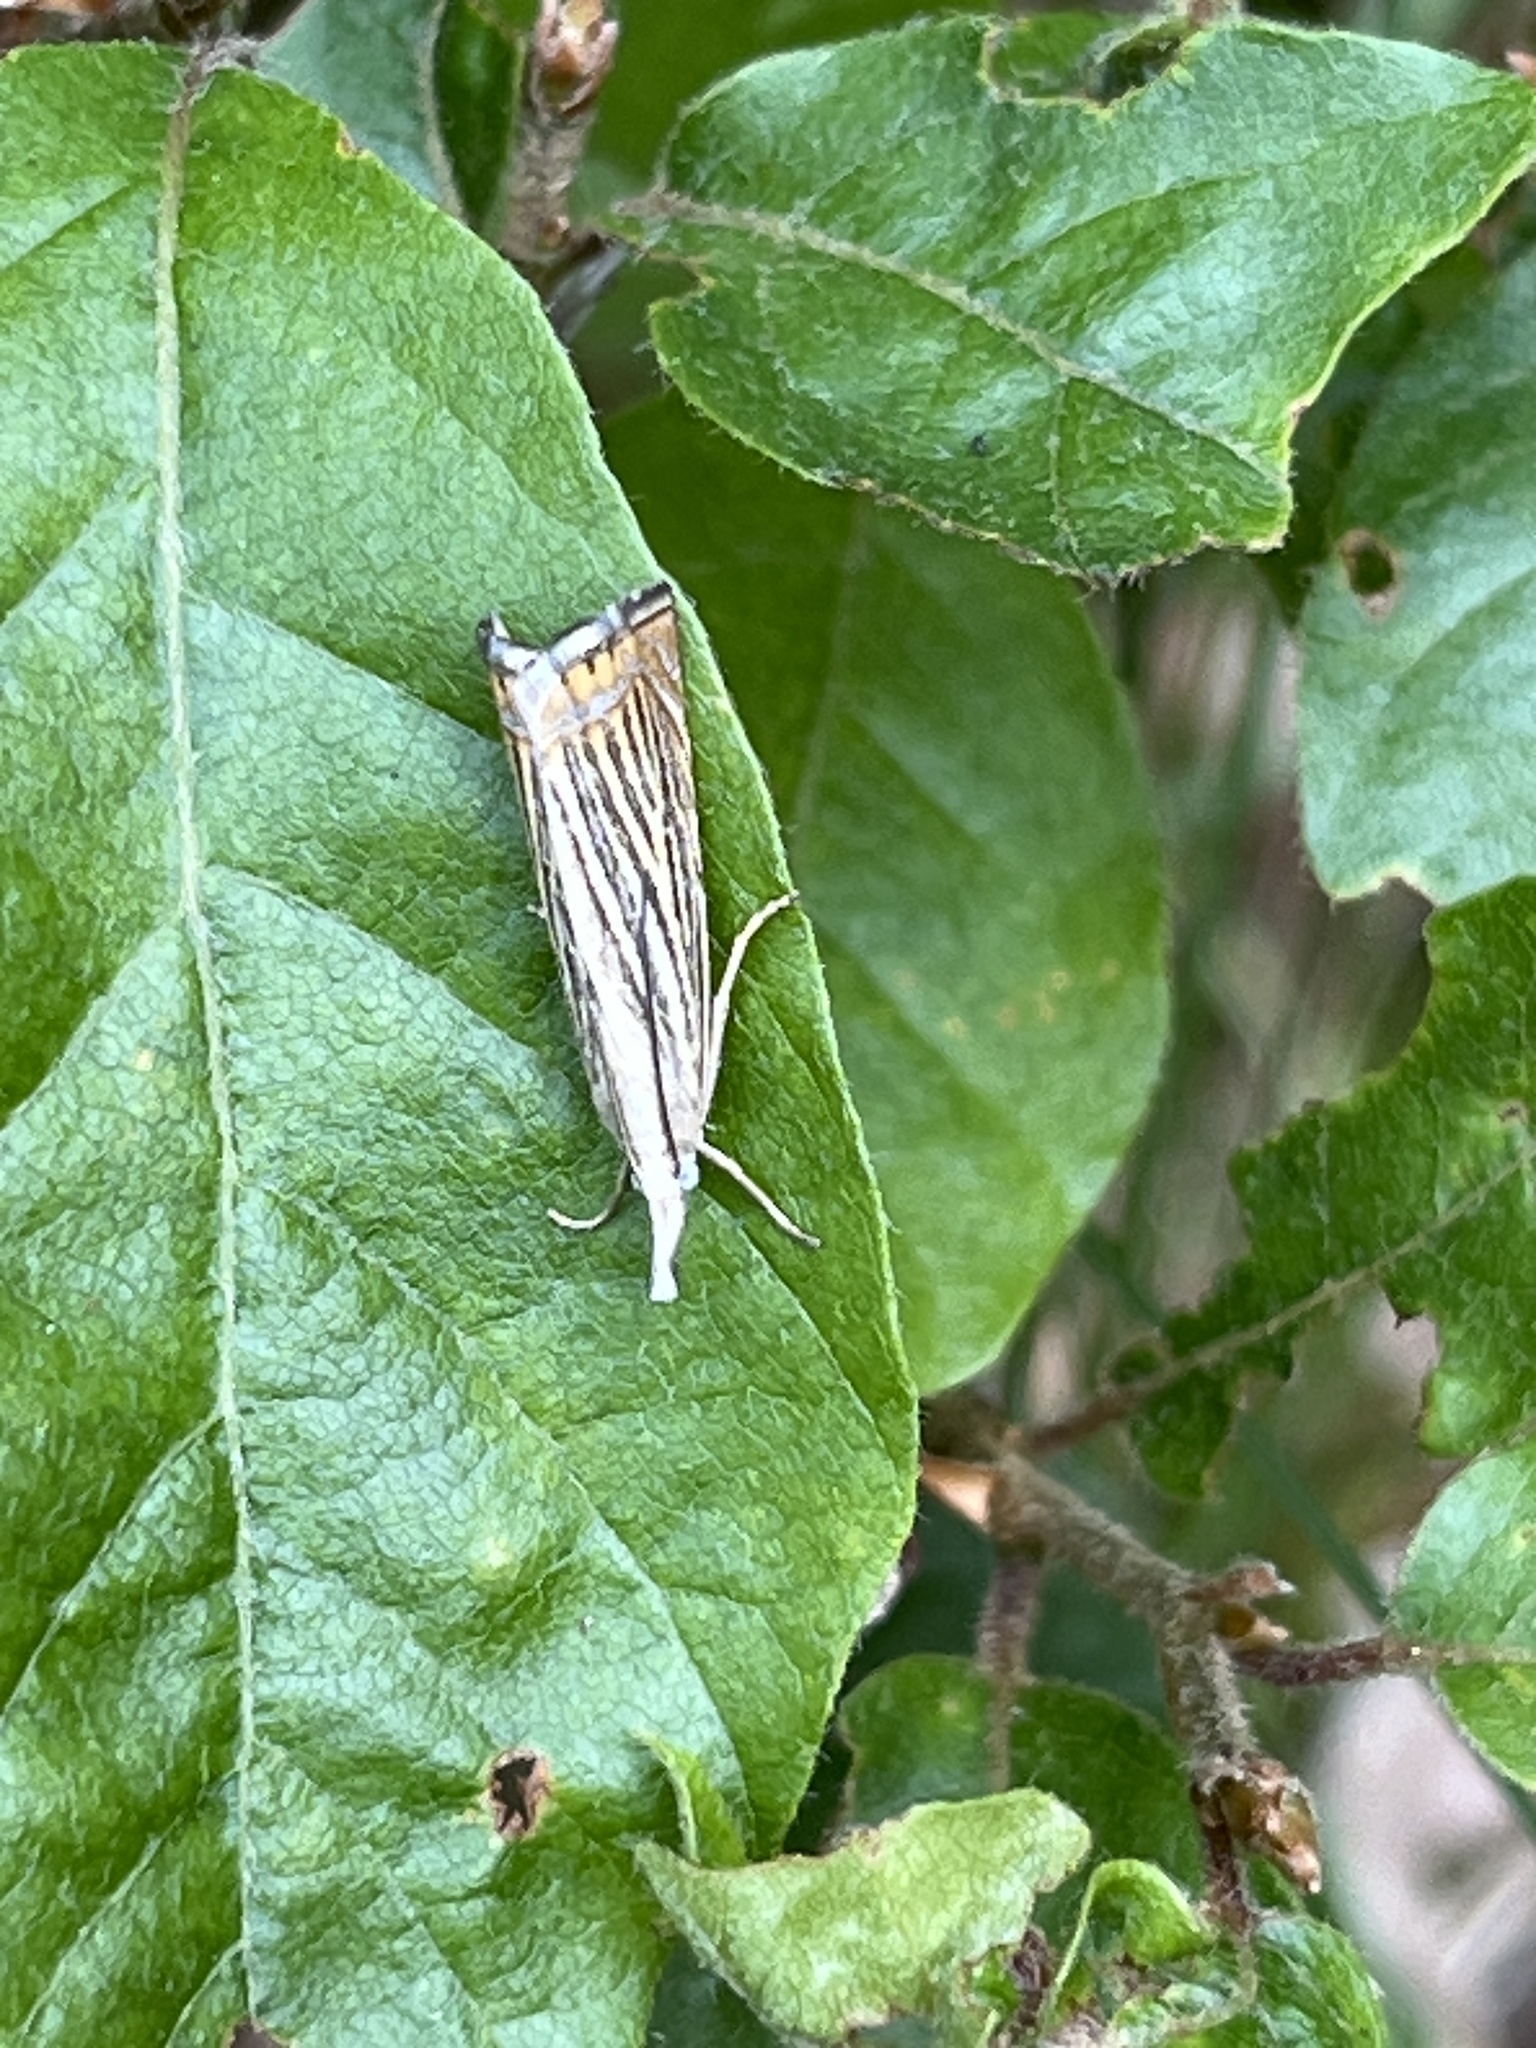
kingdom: Animalia
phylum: Arthropoda
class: Insecta
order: Lepidoptera
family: Crambidae
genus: Chrysoteuchia
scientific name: Chrysoteuchia culmella
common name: Garden grass-veneer
